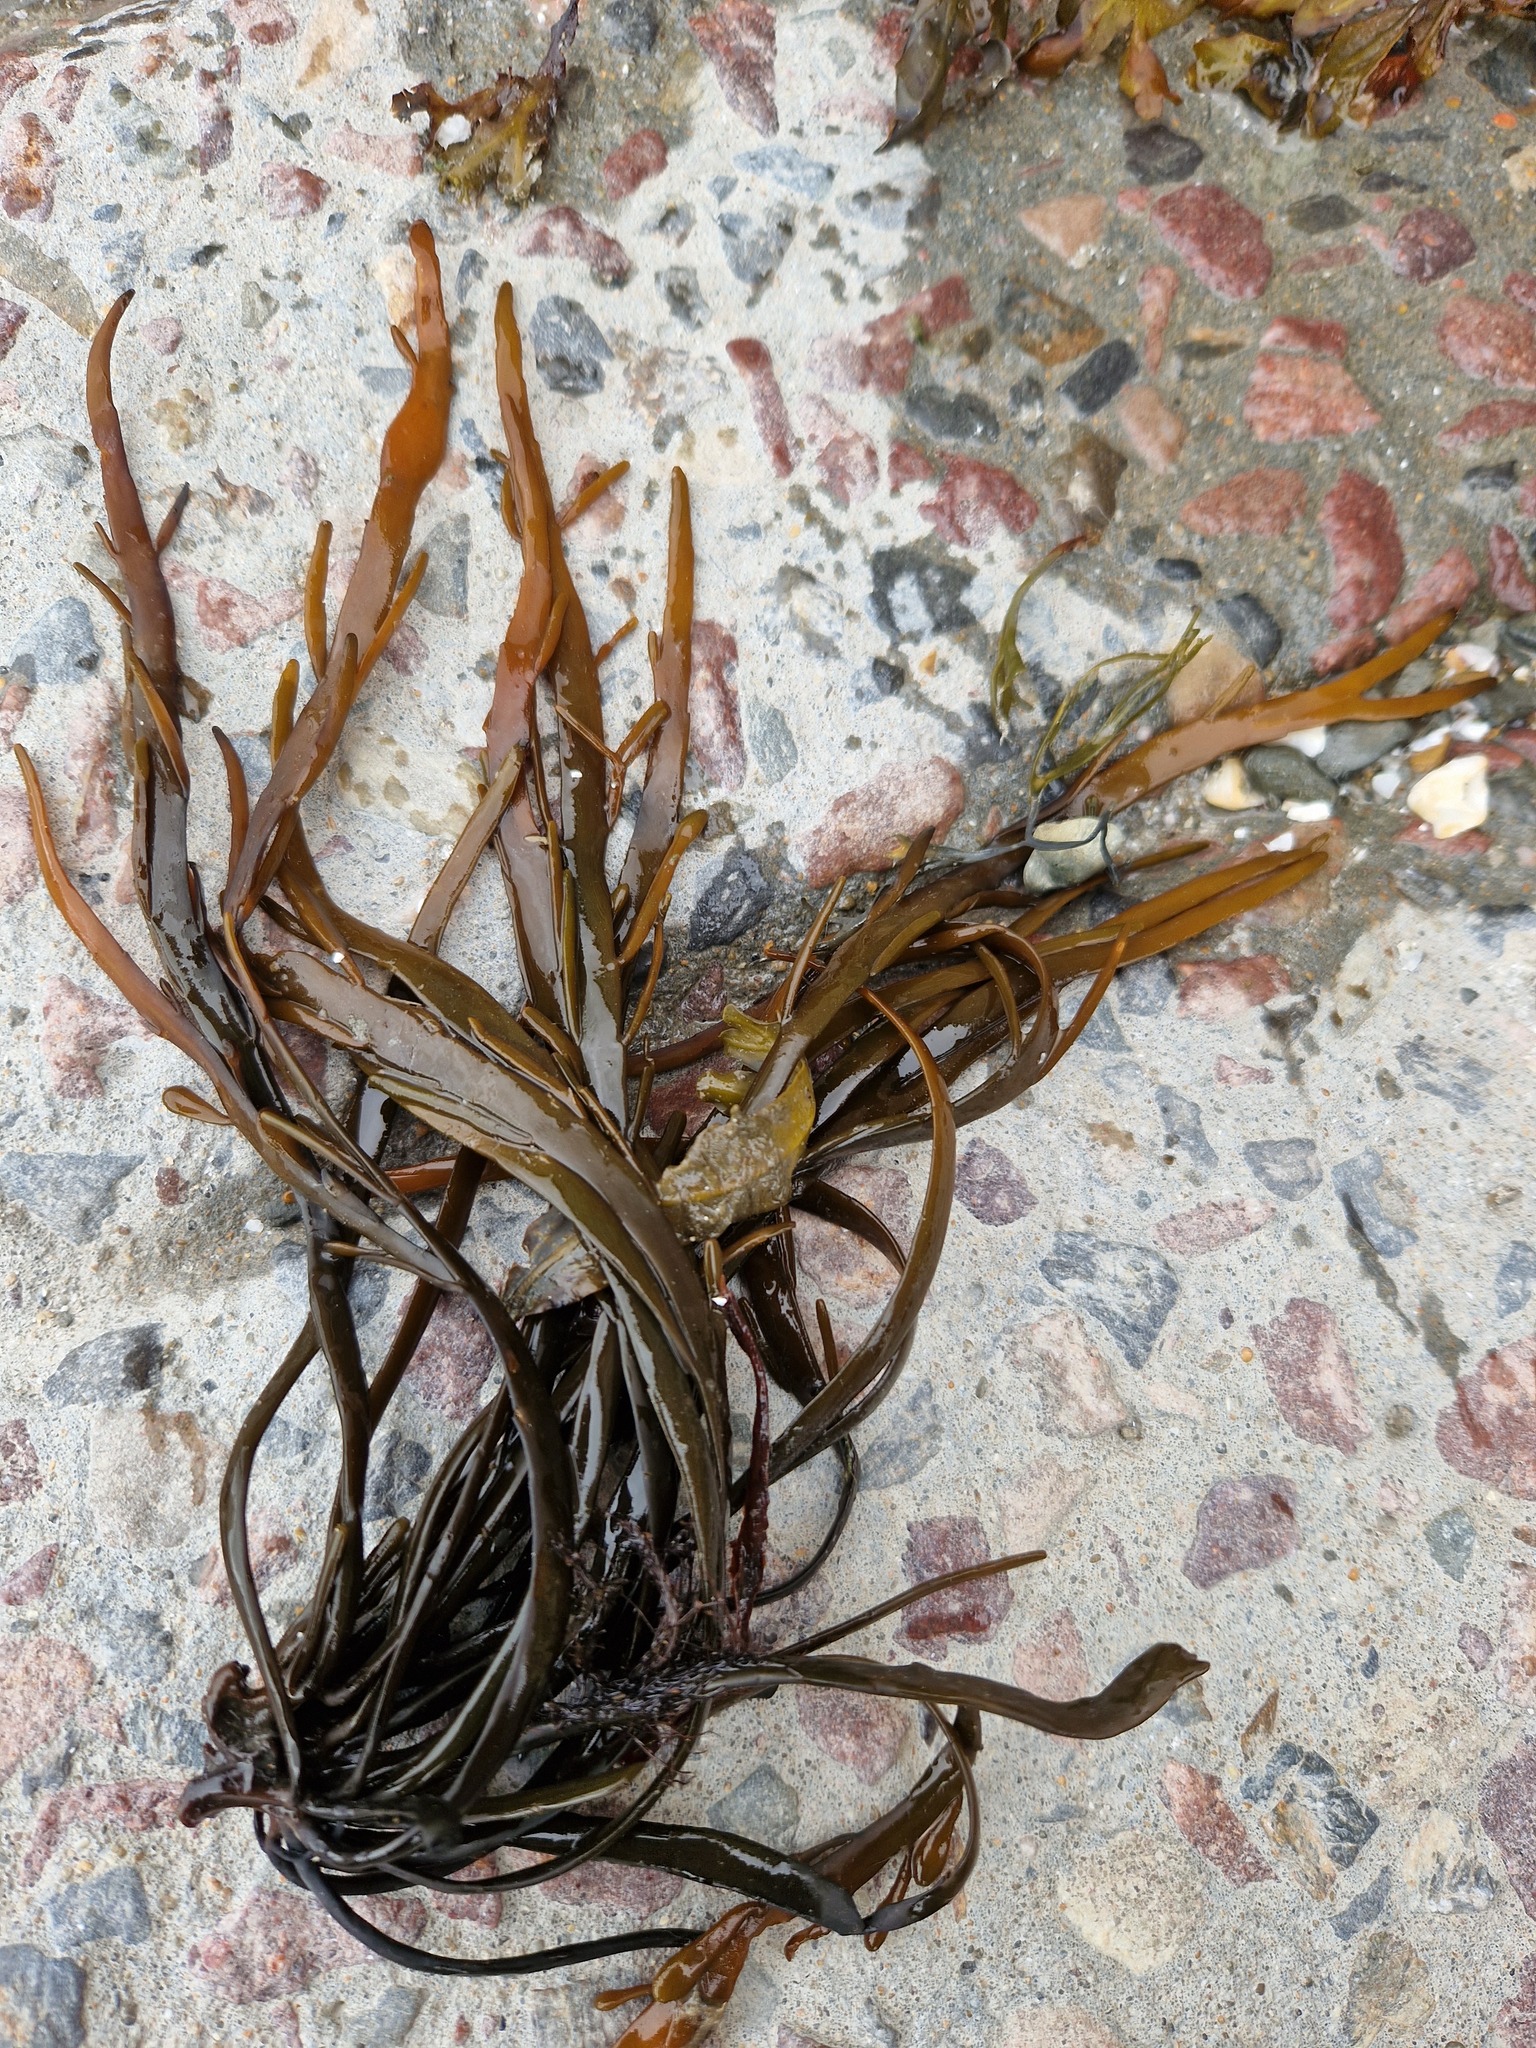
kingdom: Chromista
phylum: Ochrophyta
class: Phaeophyceae
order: Fucales
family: Fucaceae
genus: Ascophyllum
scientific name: Ascophyllum nodosum
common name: Knotted wrack
